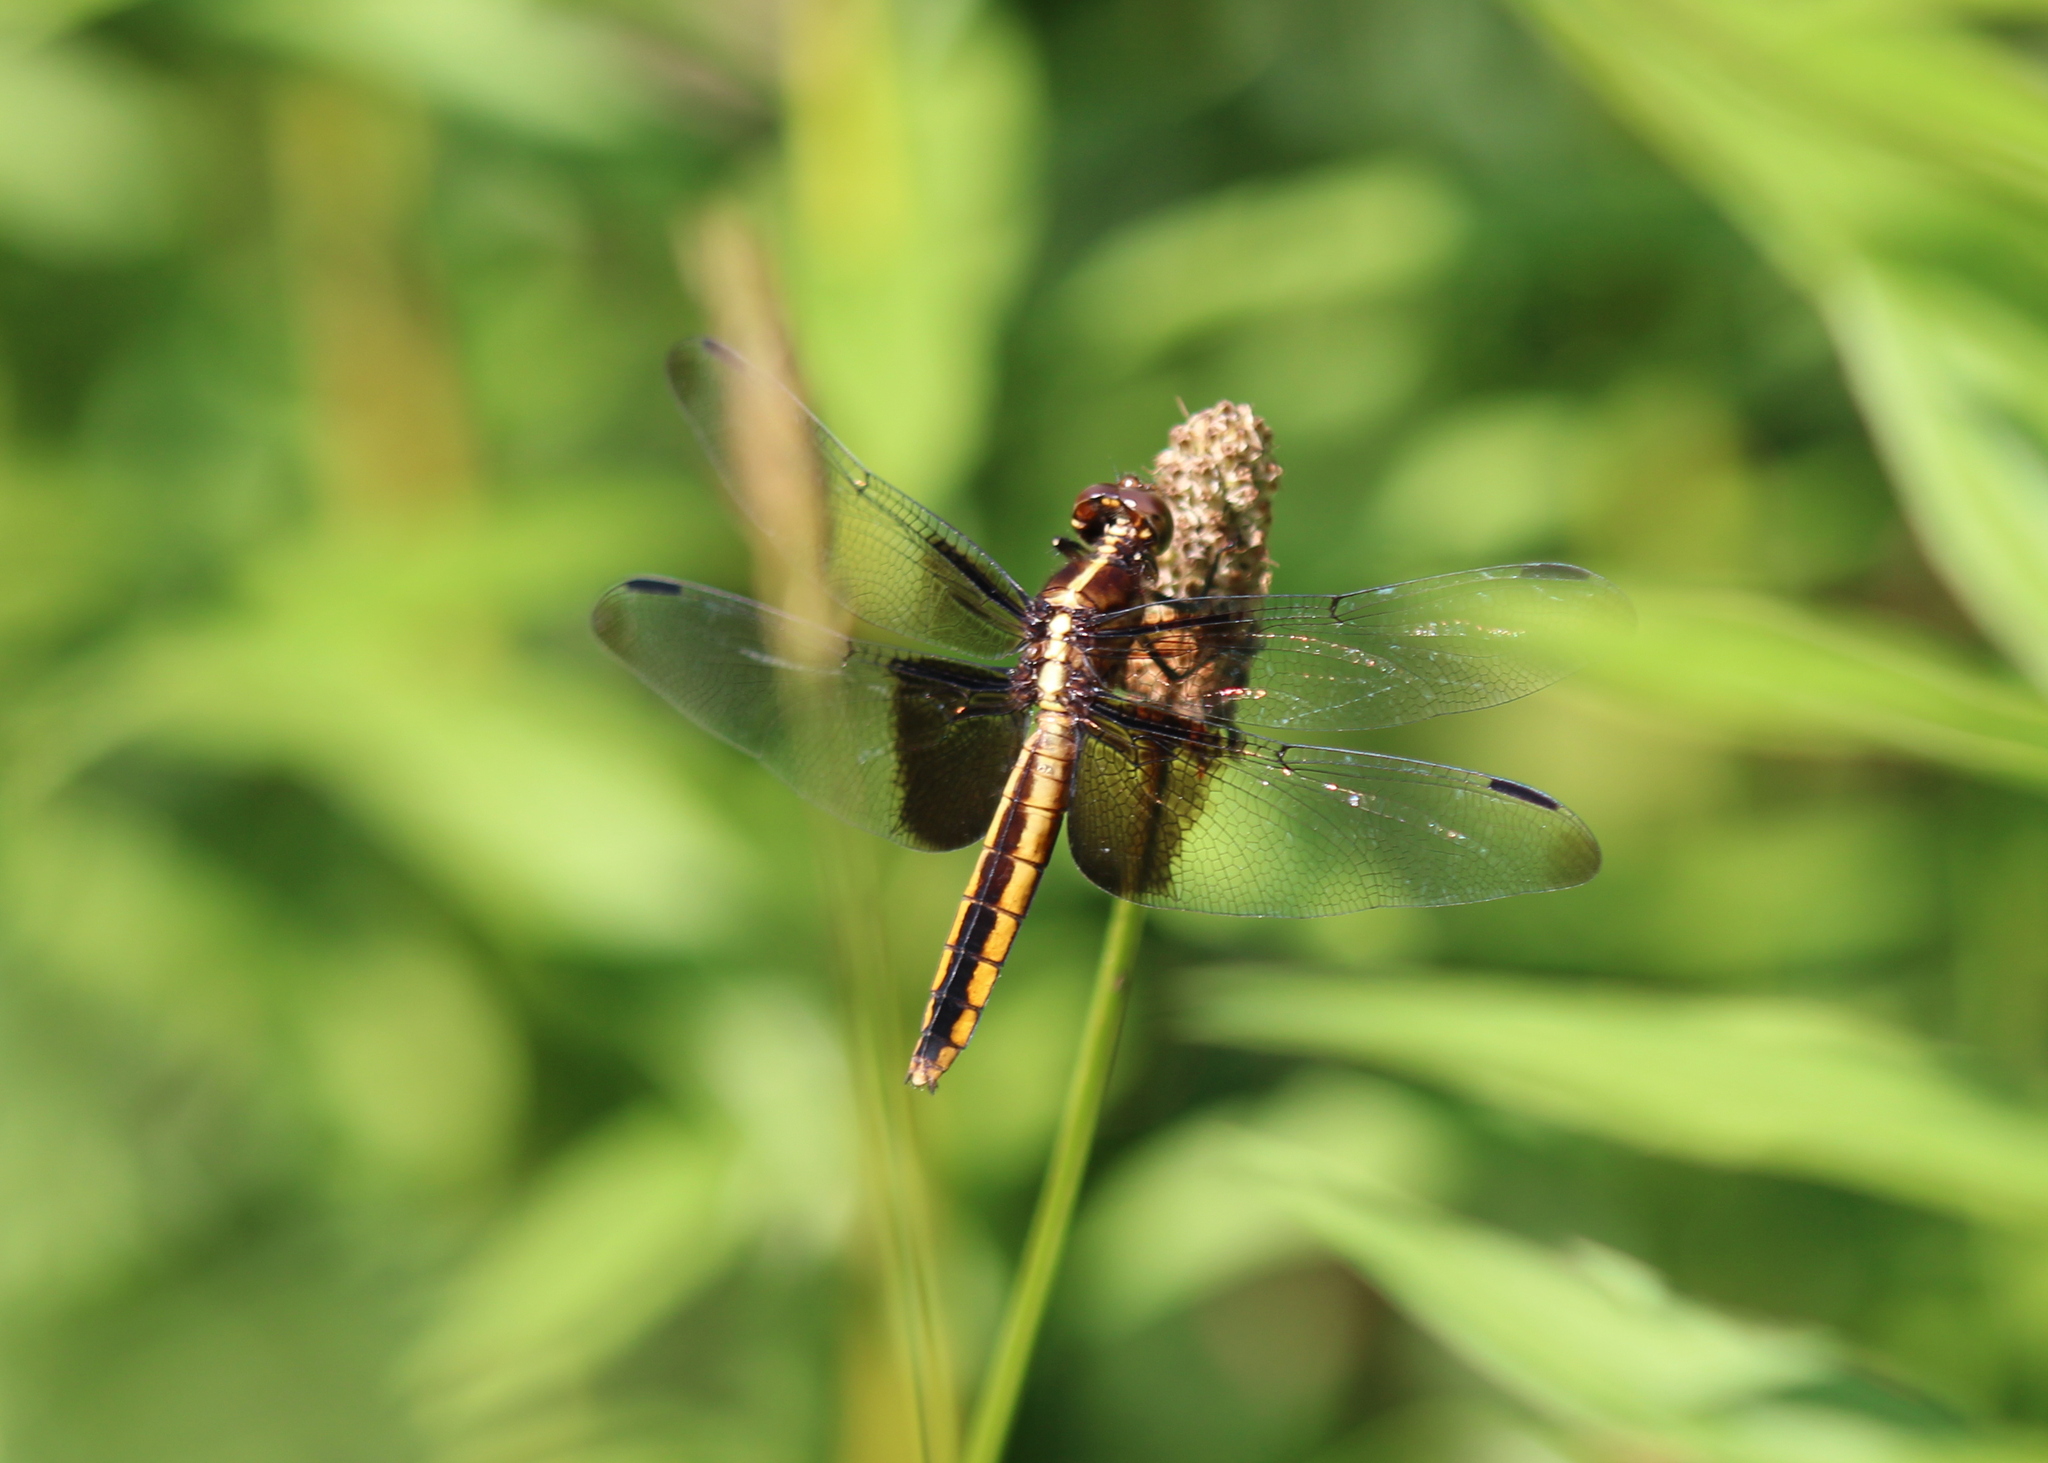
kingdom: Animalia
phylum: Arthropoda
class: Insecta
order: Odonata
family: Libellulidae
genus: Libellula
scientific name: Libellula luctuosa
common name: Widow skimmer
